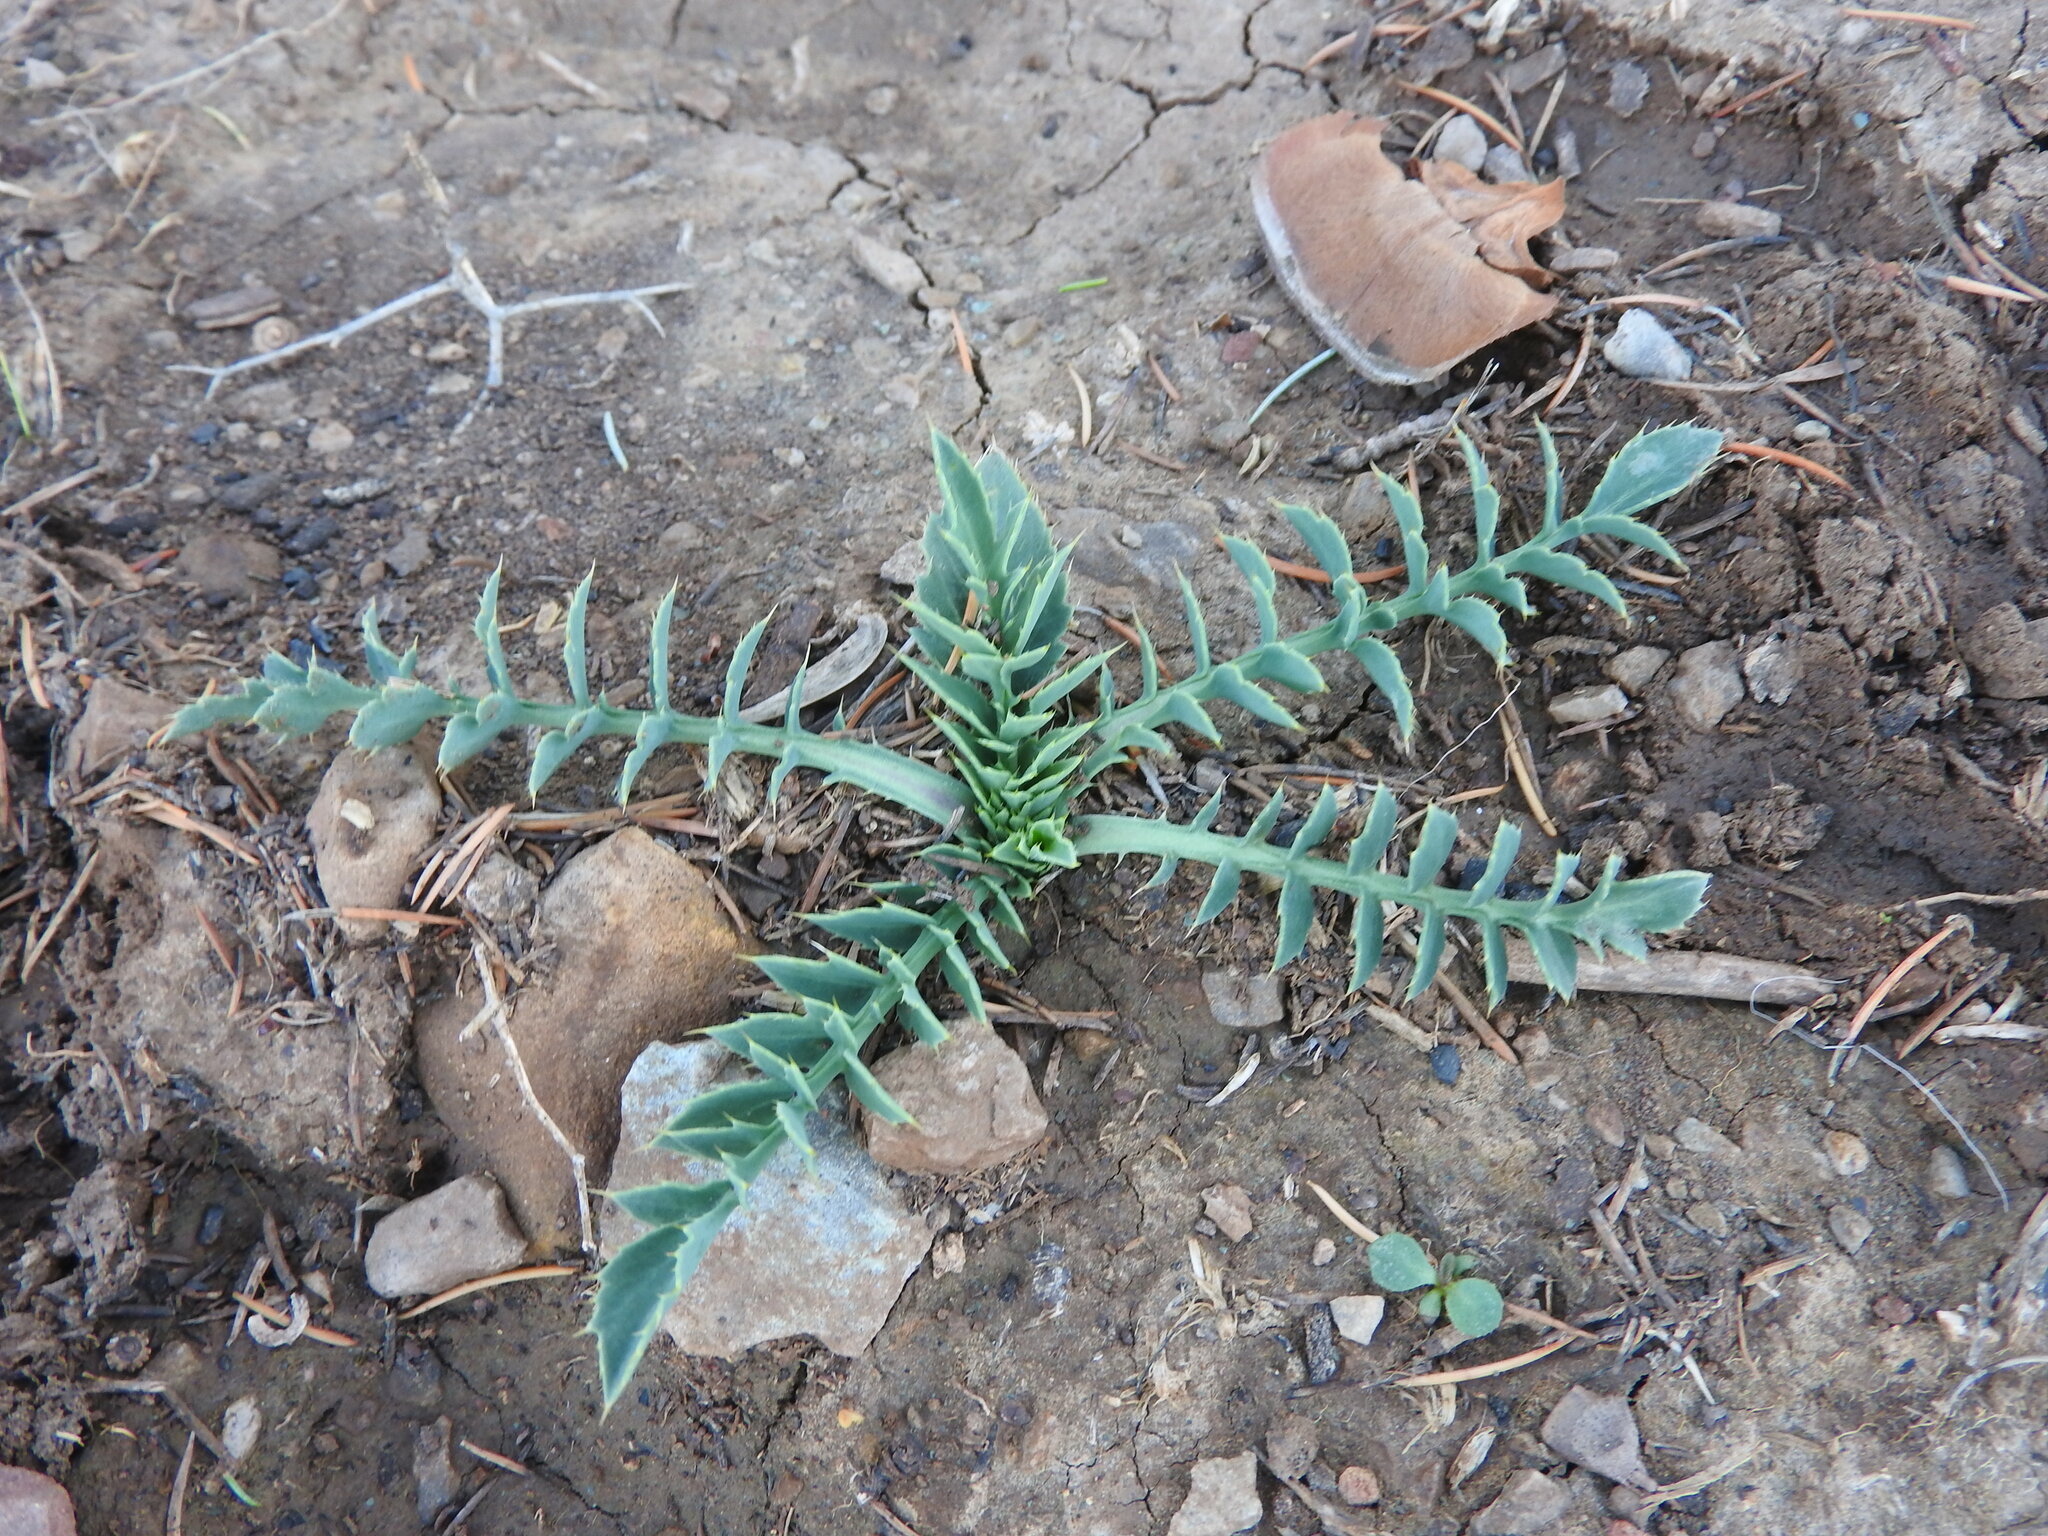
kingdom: Plantae
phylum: Tracheophyta
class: Magnoliopsida
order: Asterales
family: Asteraceae
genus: Carduncellus
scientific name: Carduncellus
